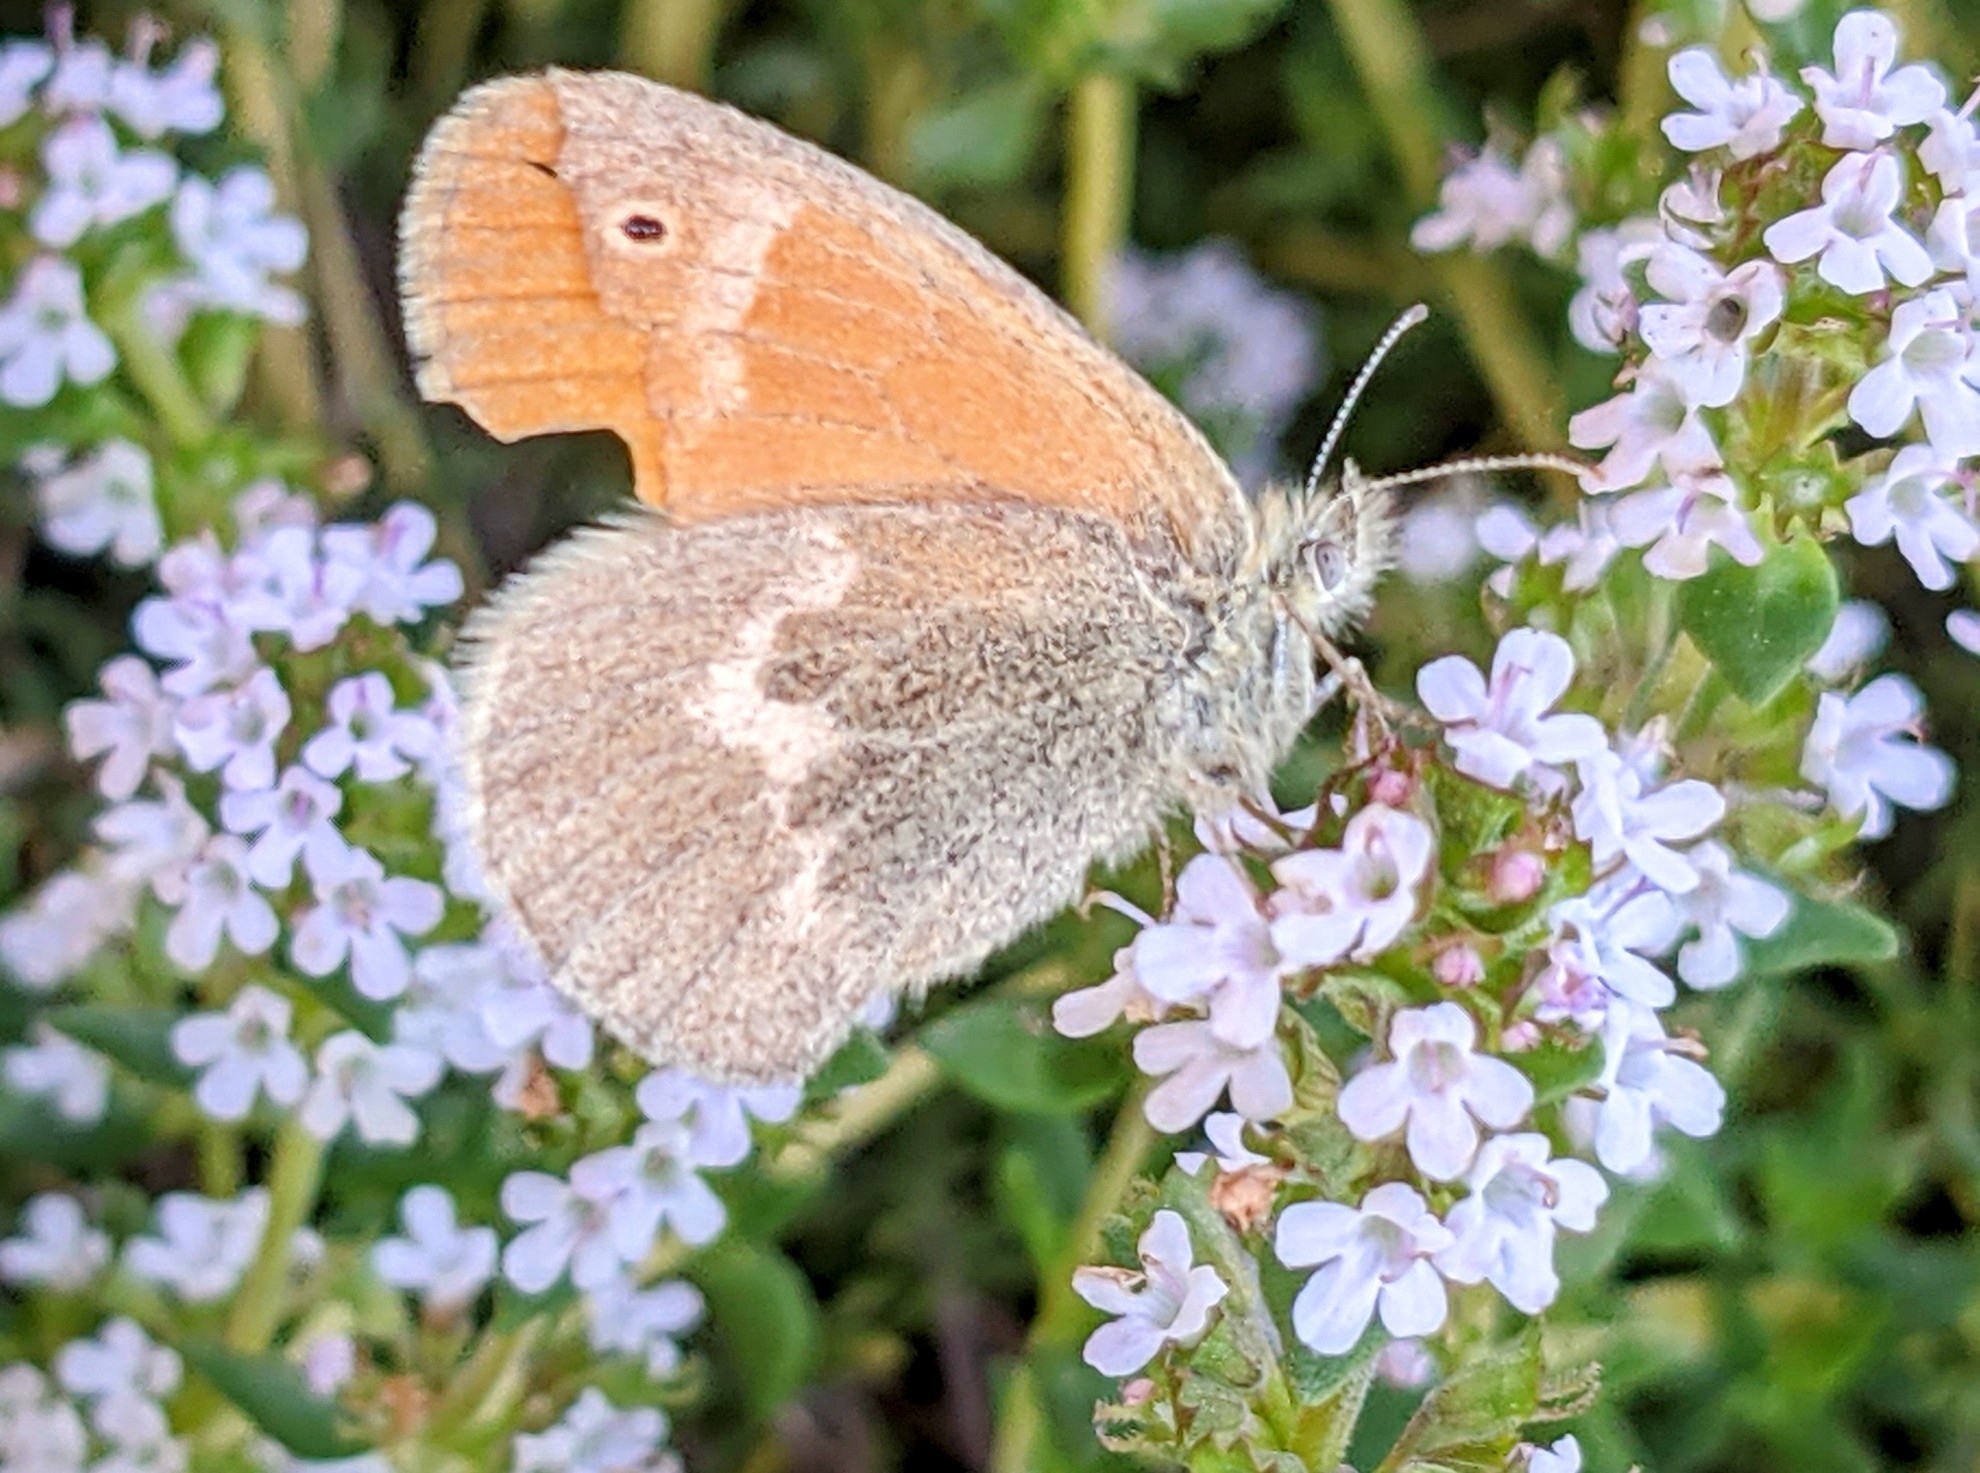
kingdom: Animalia
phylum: Arthropoda
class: Insecta
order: Lepidoptera
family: Nymphalidae
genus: Coenonympha
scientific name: Coenonympha california
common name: Common ringlet
